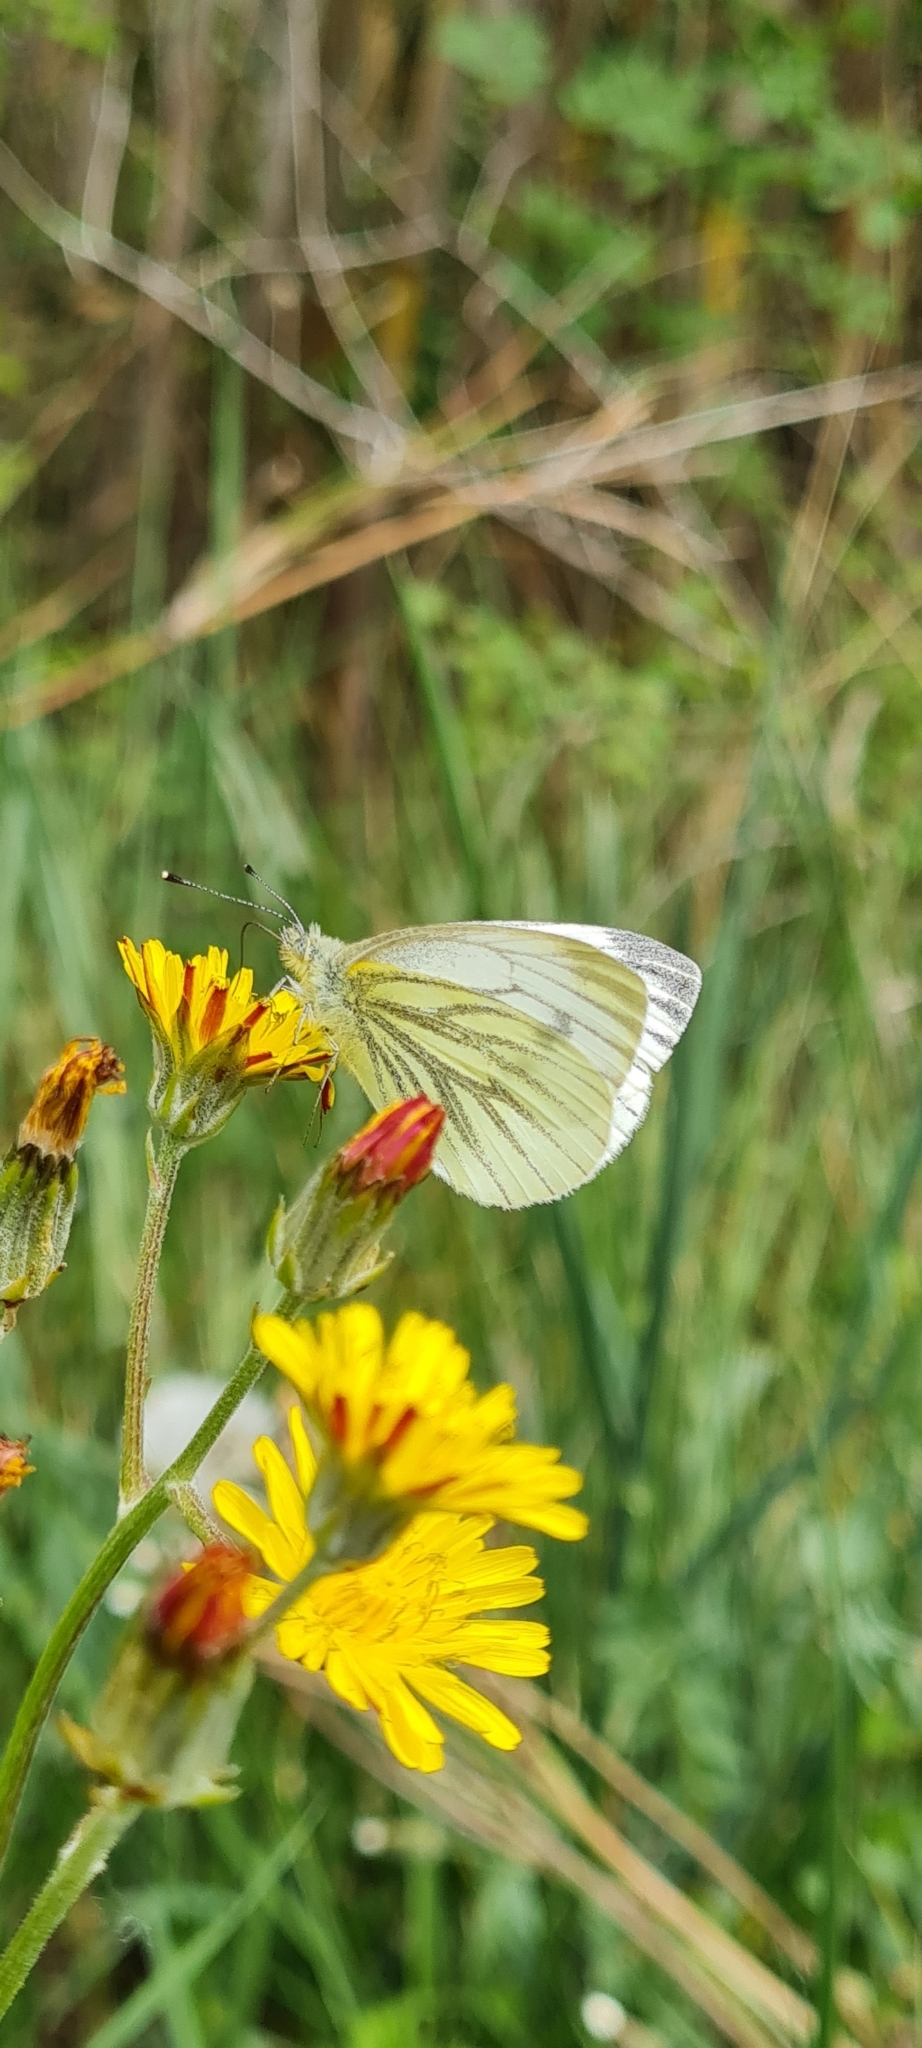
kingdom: Animalia
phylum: Arthropoda
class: Insecta
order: Lepidoptera
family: Pieridae
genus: Pieris
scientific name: Pieris napi
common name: Green-veined white
